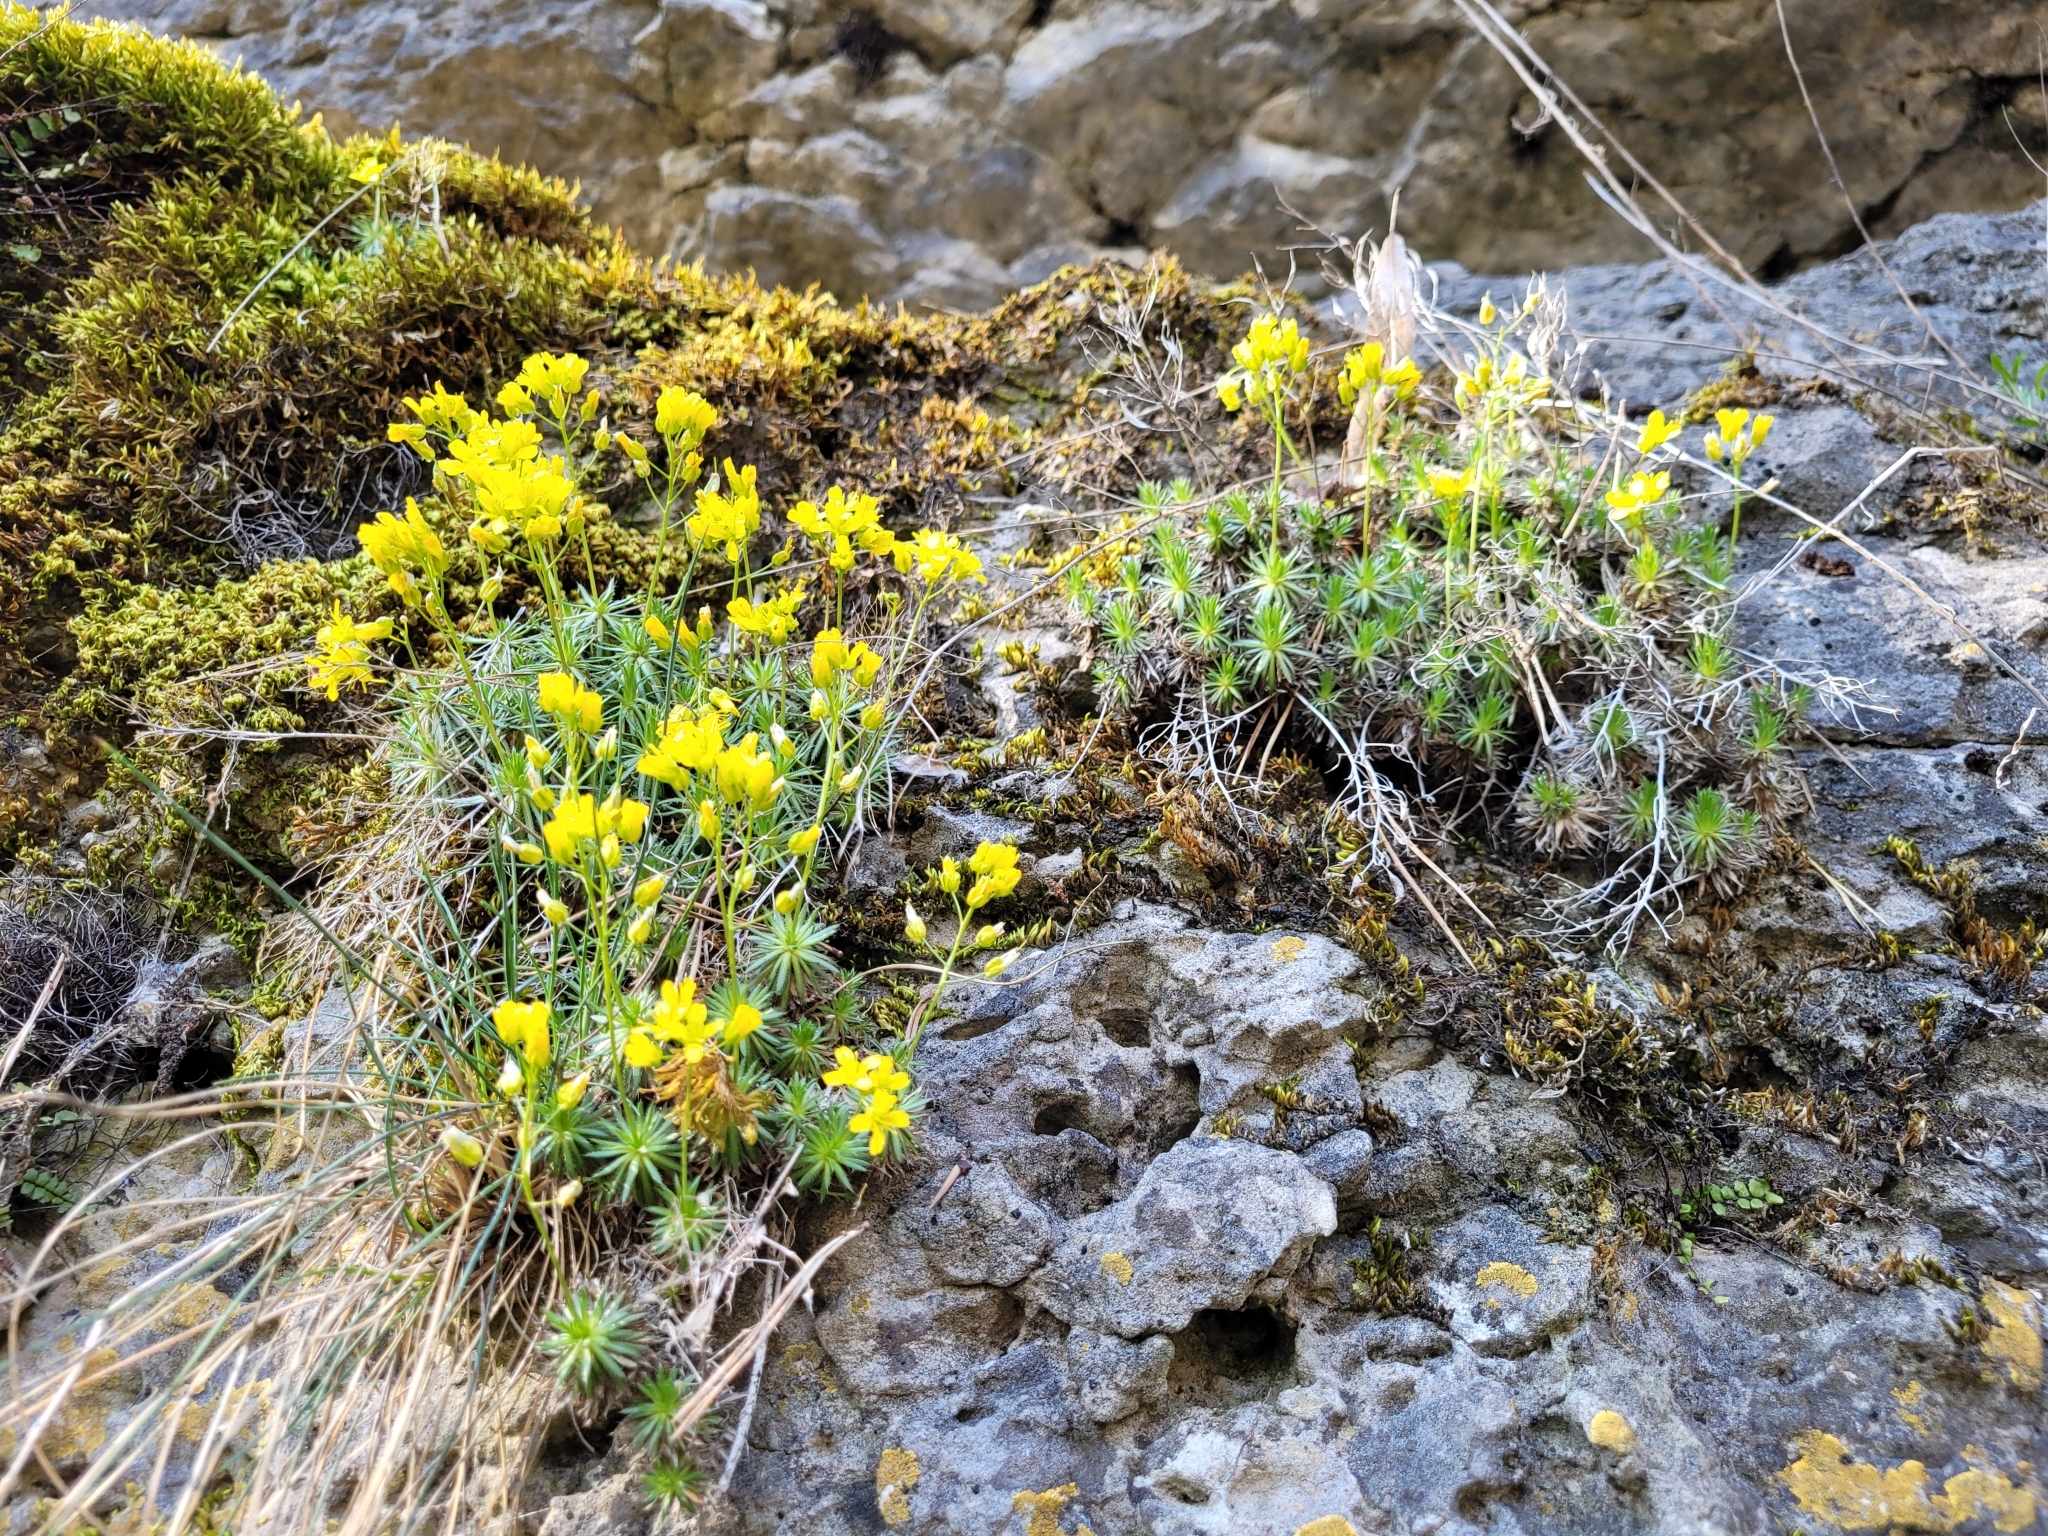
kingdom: Plantae
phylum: Tracheophyta
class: Magnoliopsida
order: Brassicales
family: Brassicaceae
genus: Draba
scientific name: Draba aizoides
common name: Yellow whitlowgrass
